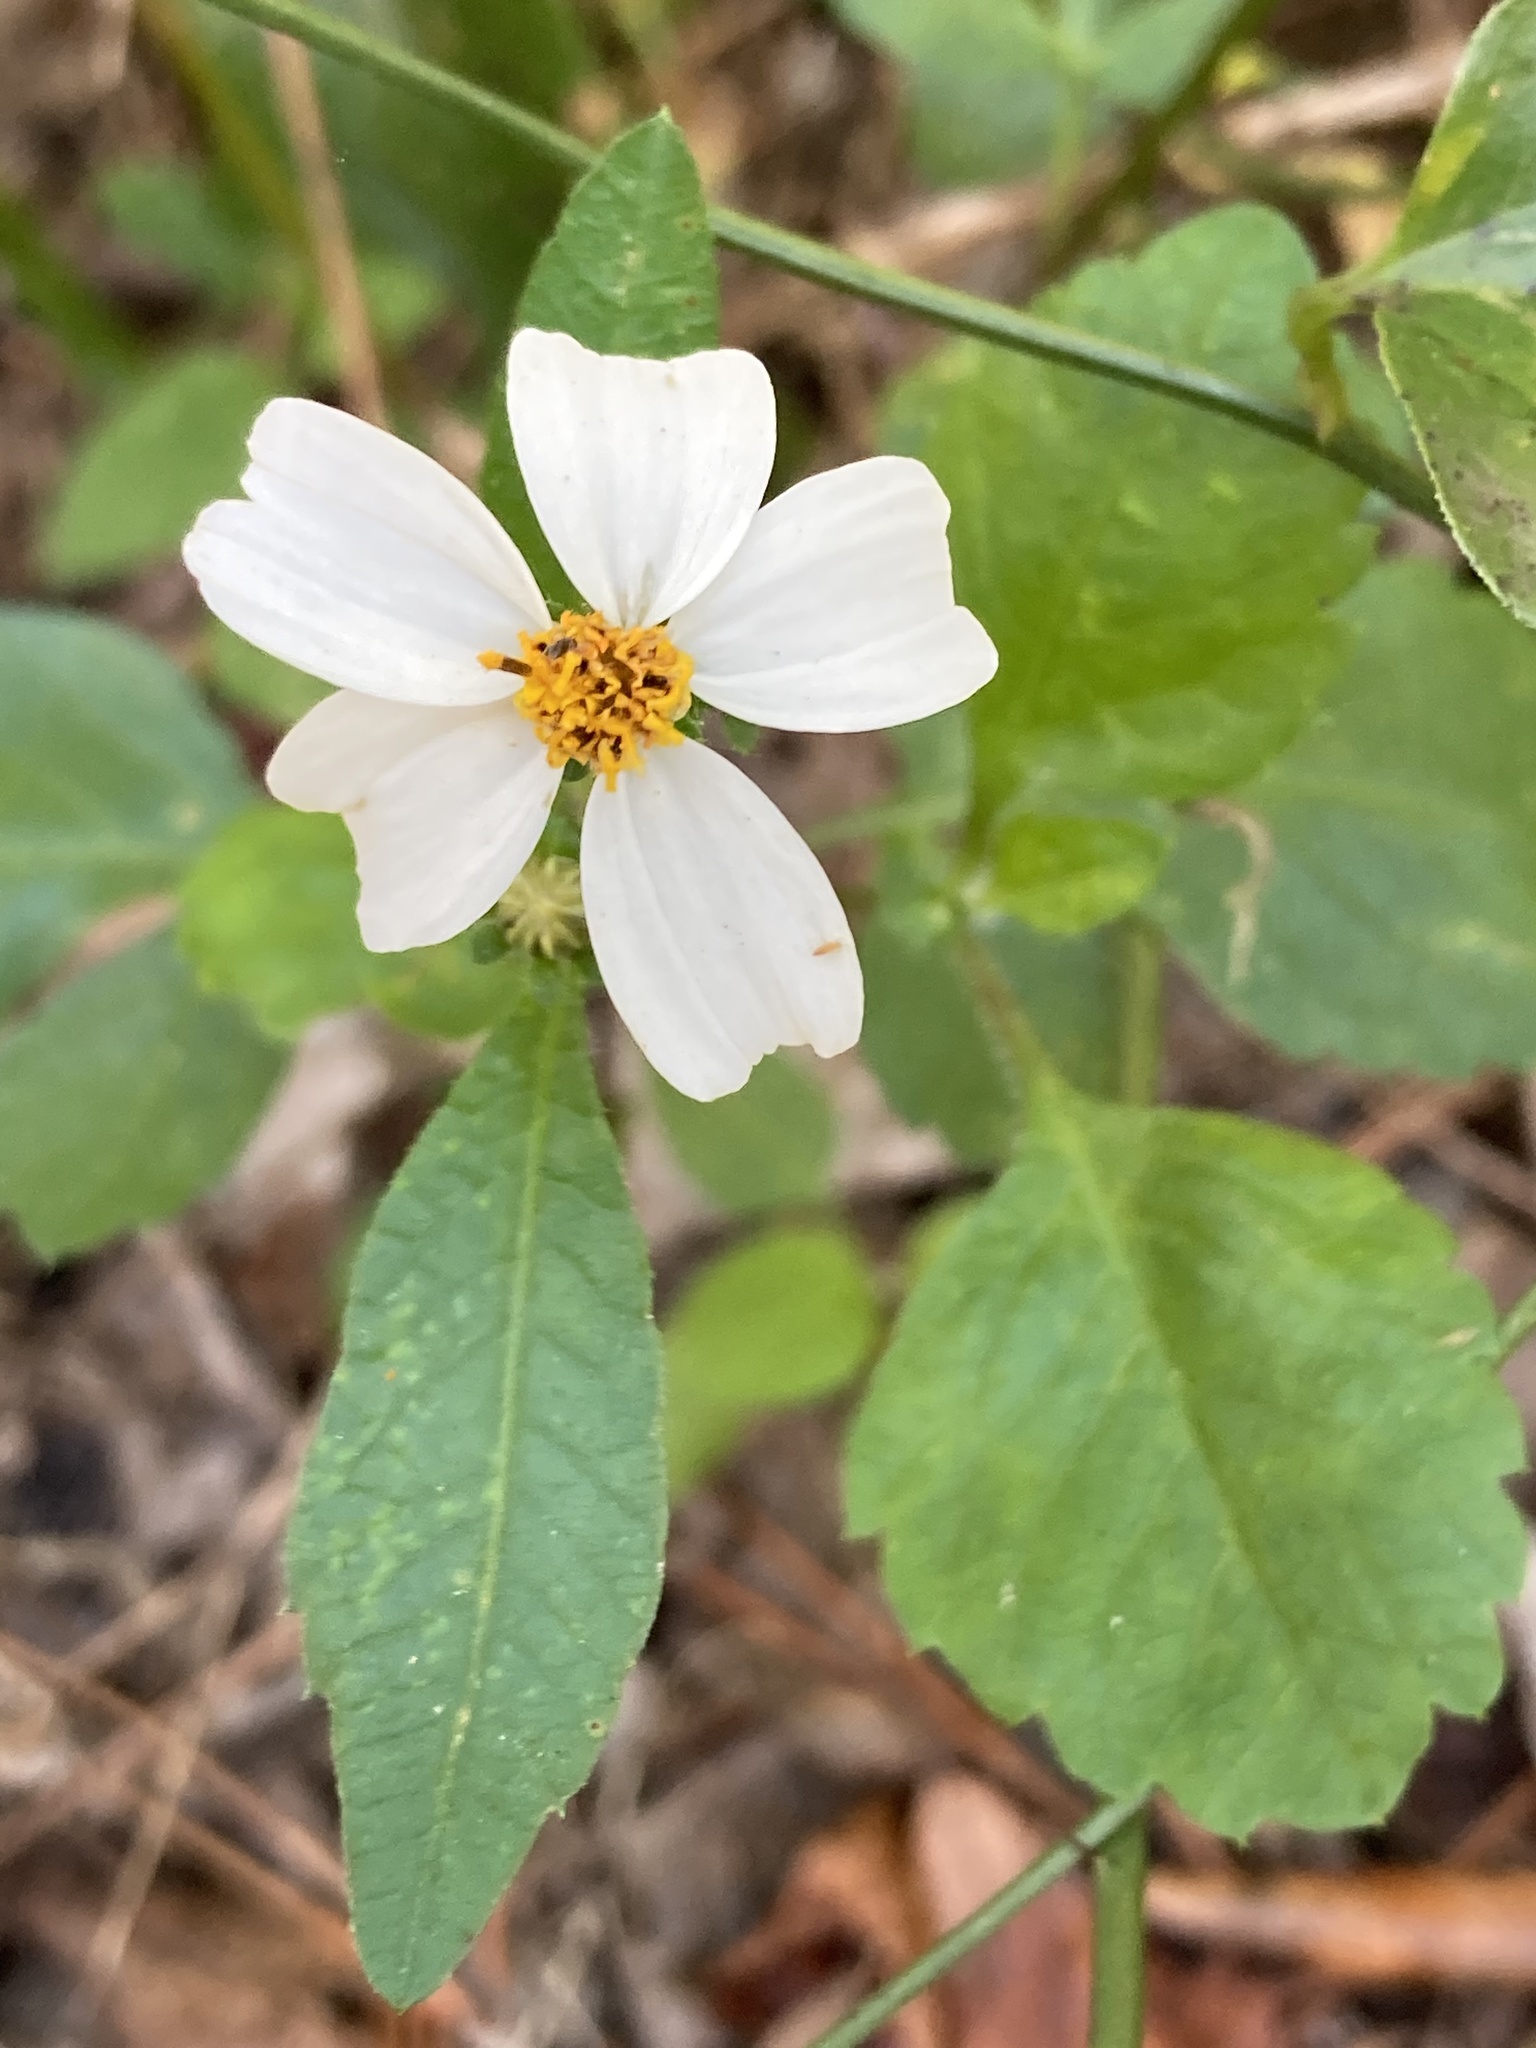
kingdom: Plantae
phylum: Tracheophyta
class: Magnoliopsida
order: Asterales
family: Asteraceae
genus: Bidens
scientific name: Bidens alba
